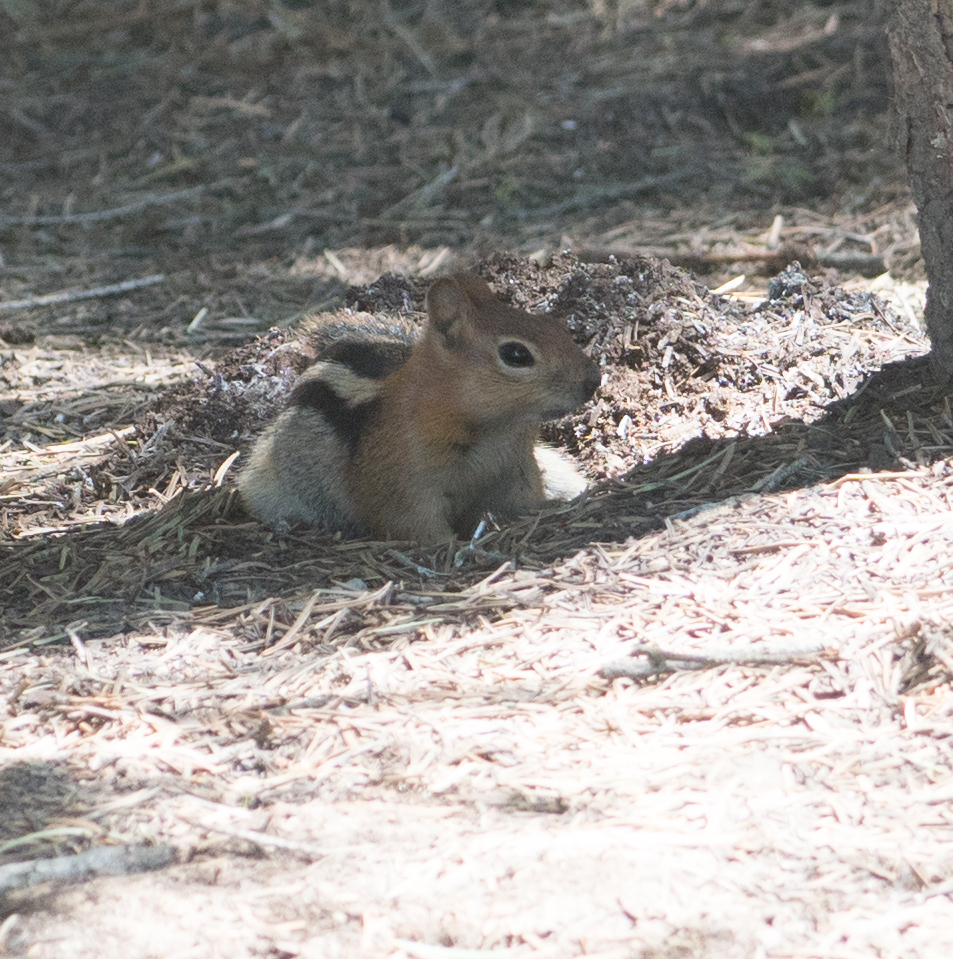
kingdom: Animalia
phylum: Chordata
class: Mammalia
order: Rodentia
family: Sciuridae
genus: Callospermophilus
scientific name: Callospermophilus lateralis
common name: Golden-mantled ground squirrel
